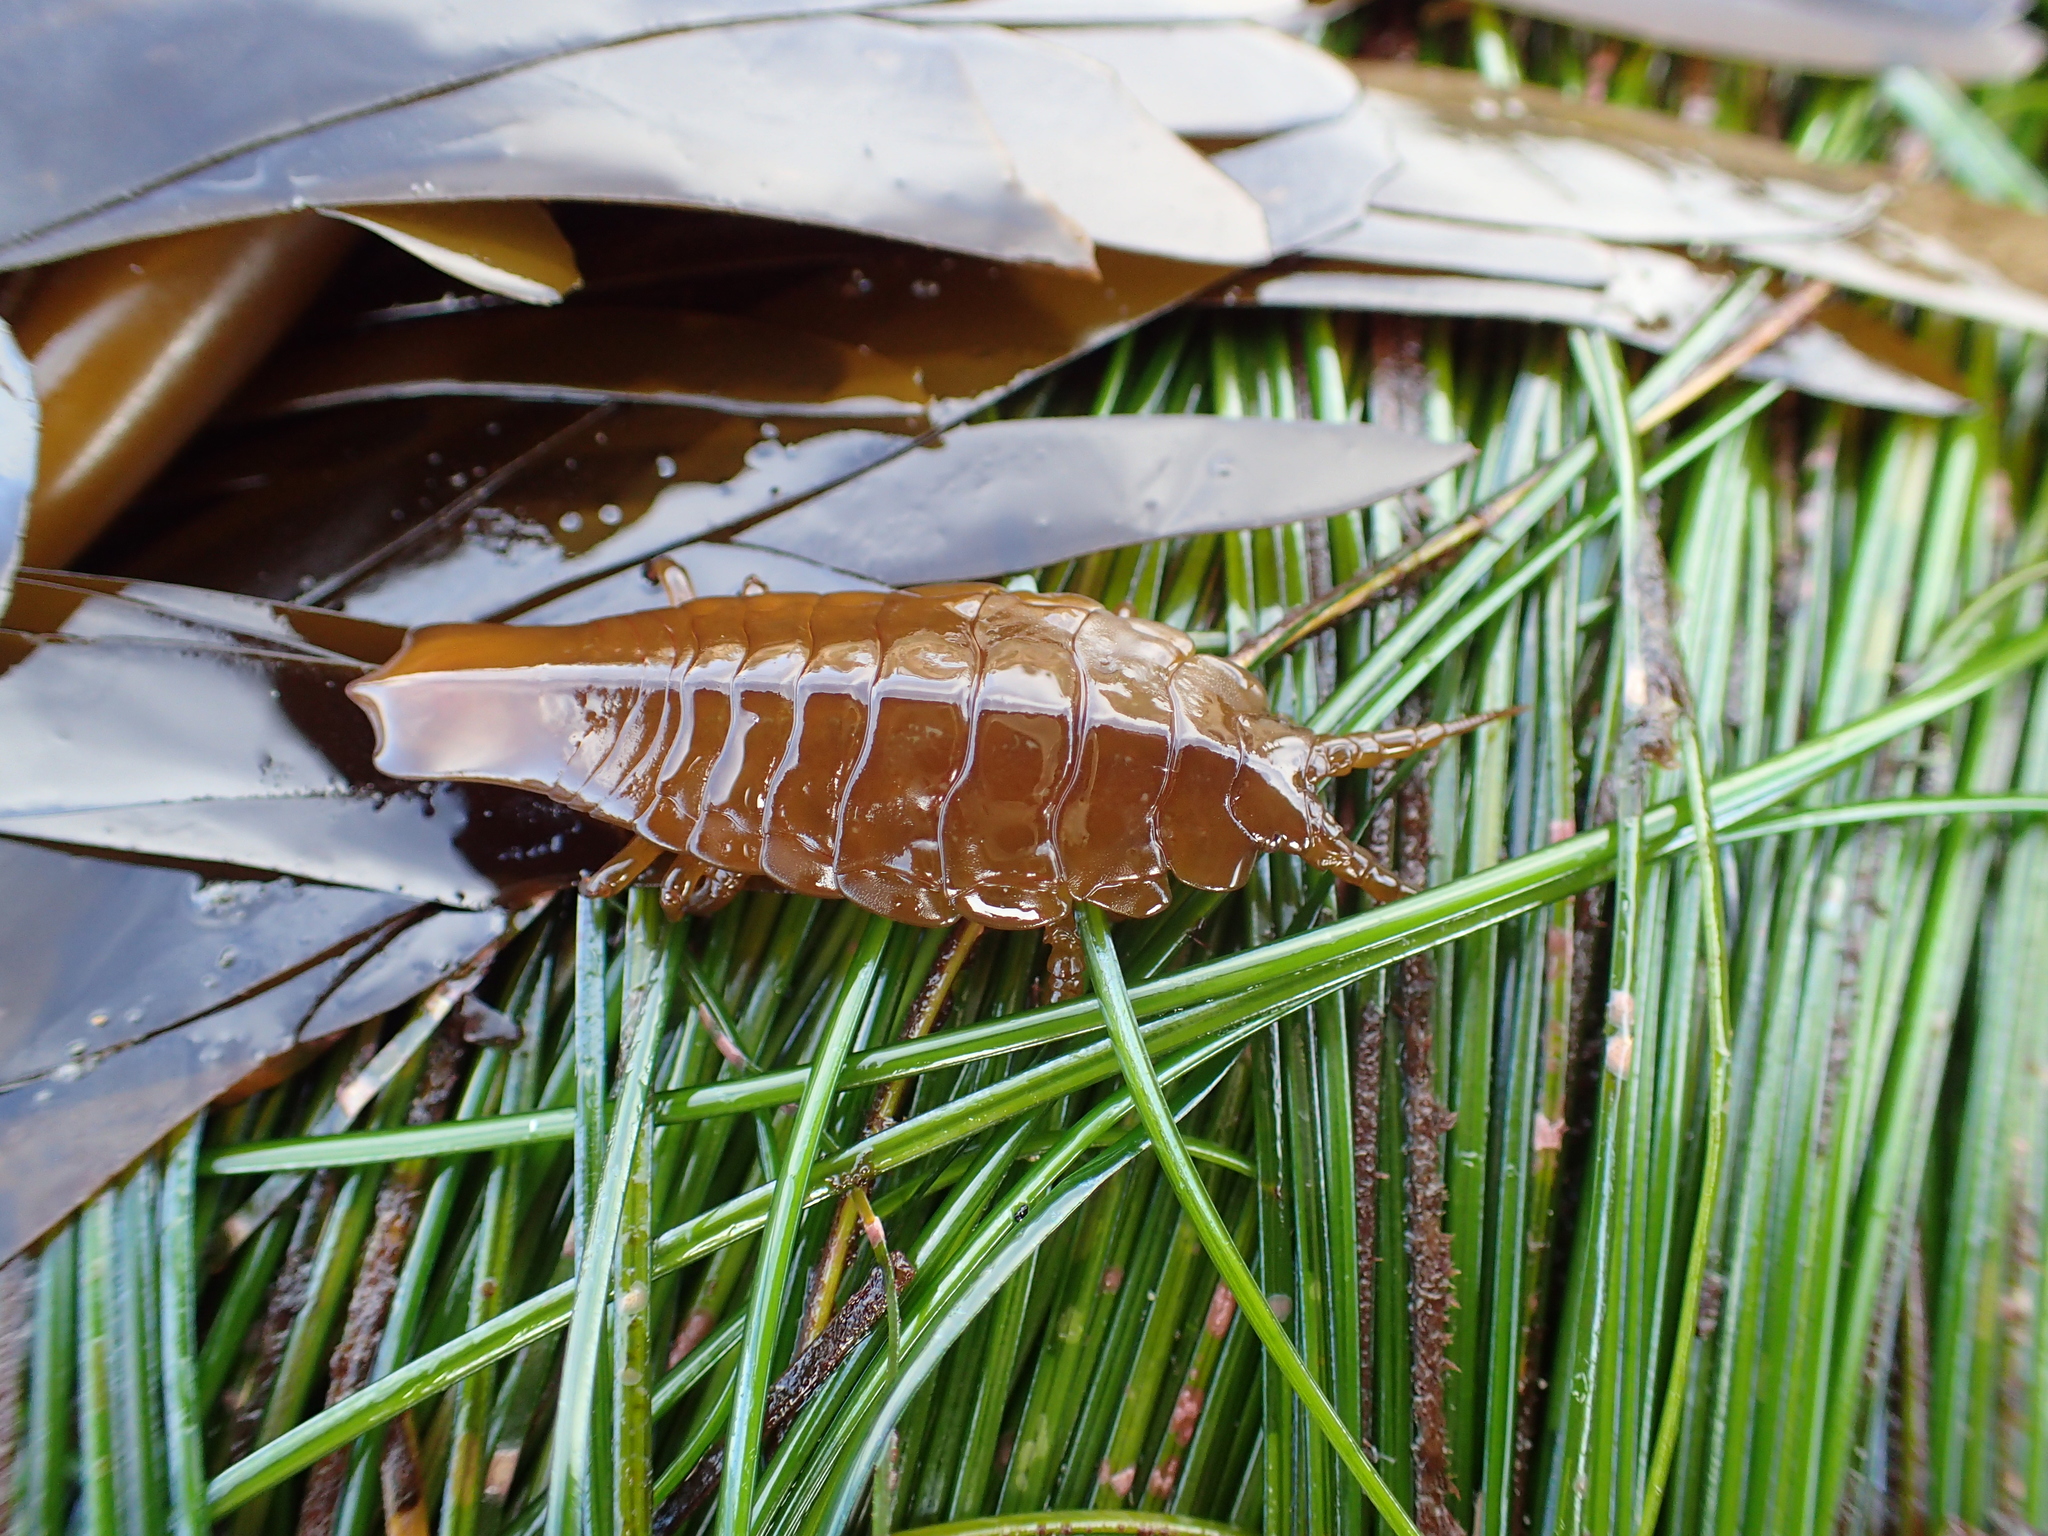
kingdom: Animalia
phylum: Arthropoda
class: Malacostraca
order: Isopoda
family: Idoteidae
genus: Pentidotea
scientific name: Pentidotea stenops
